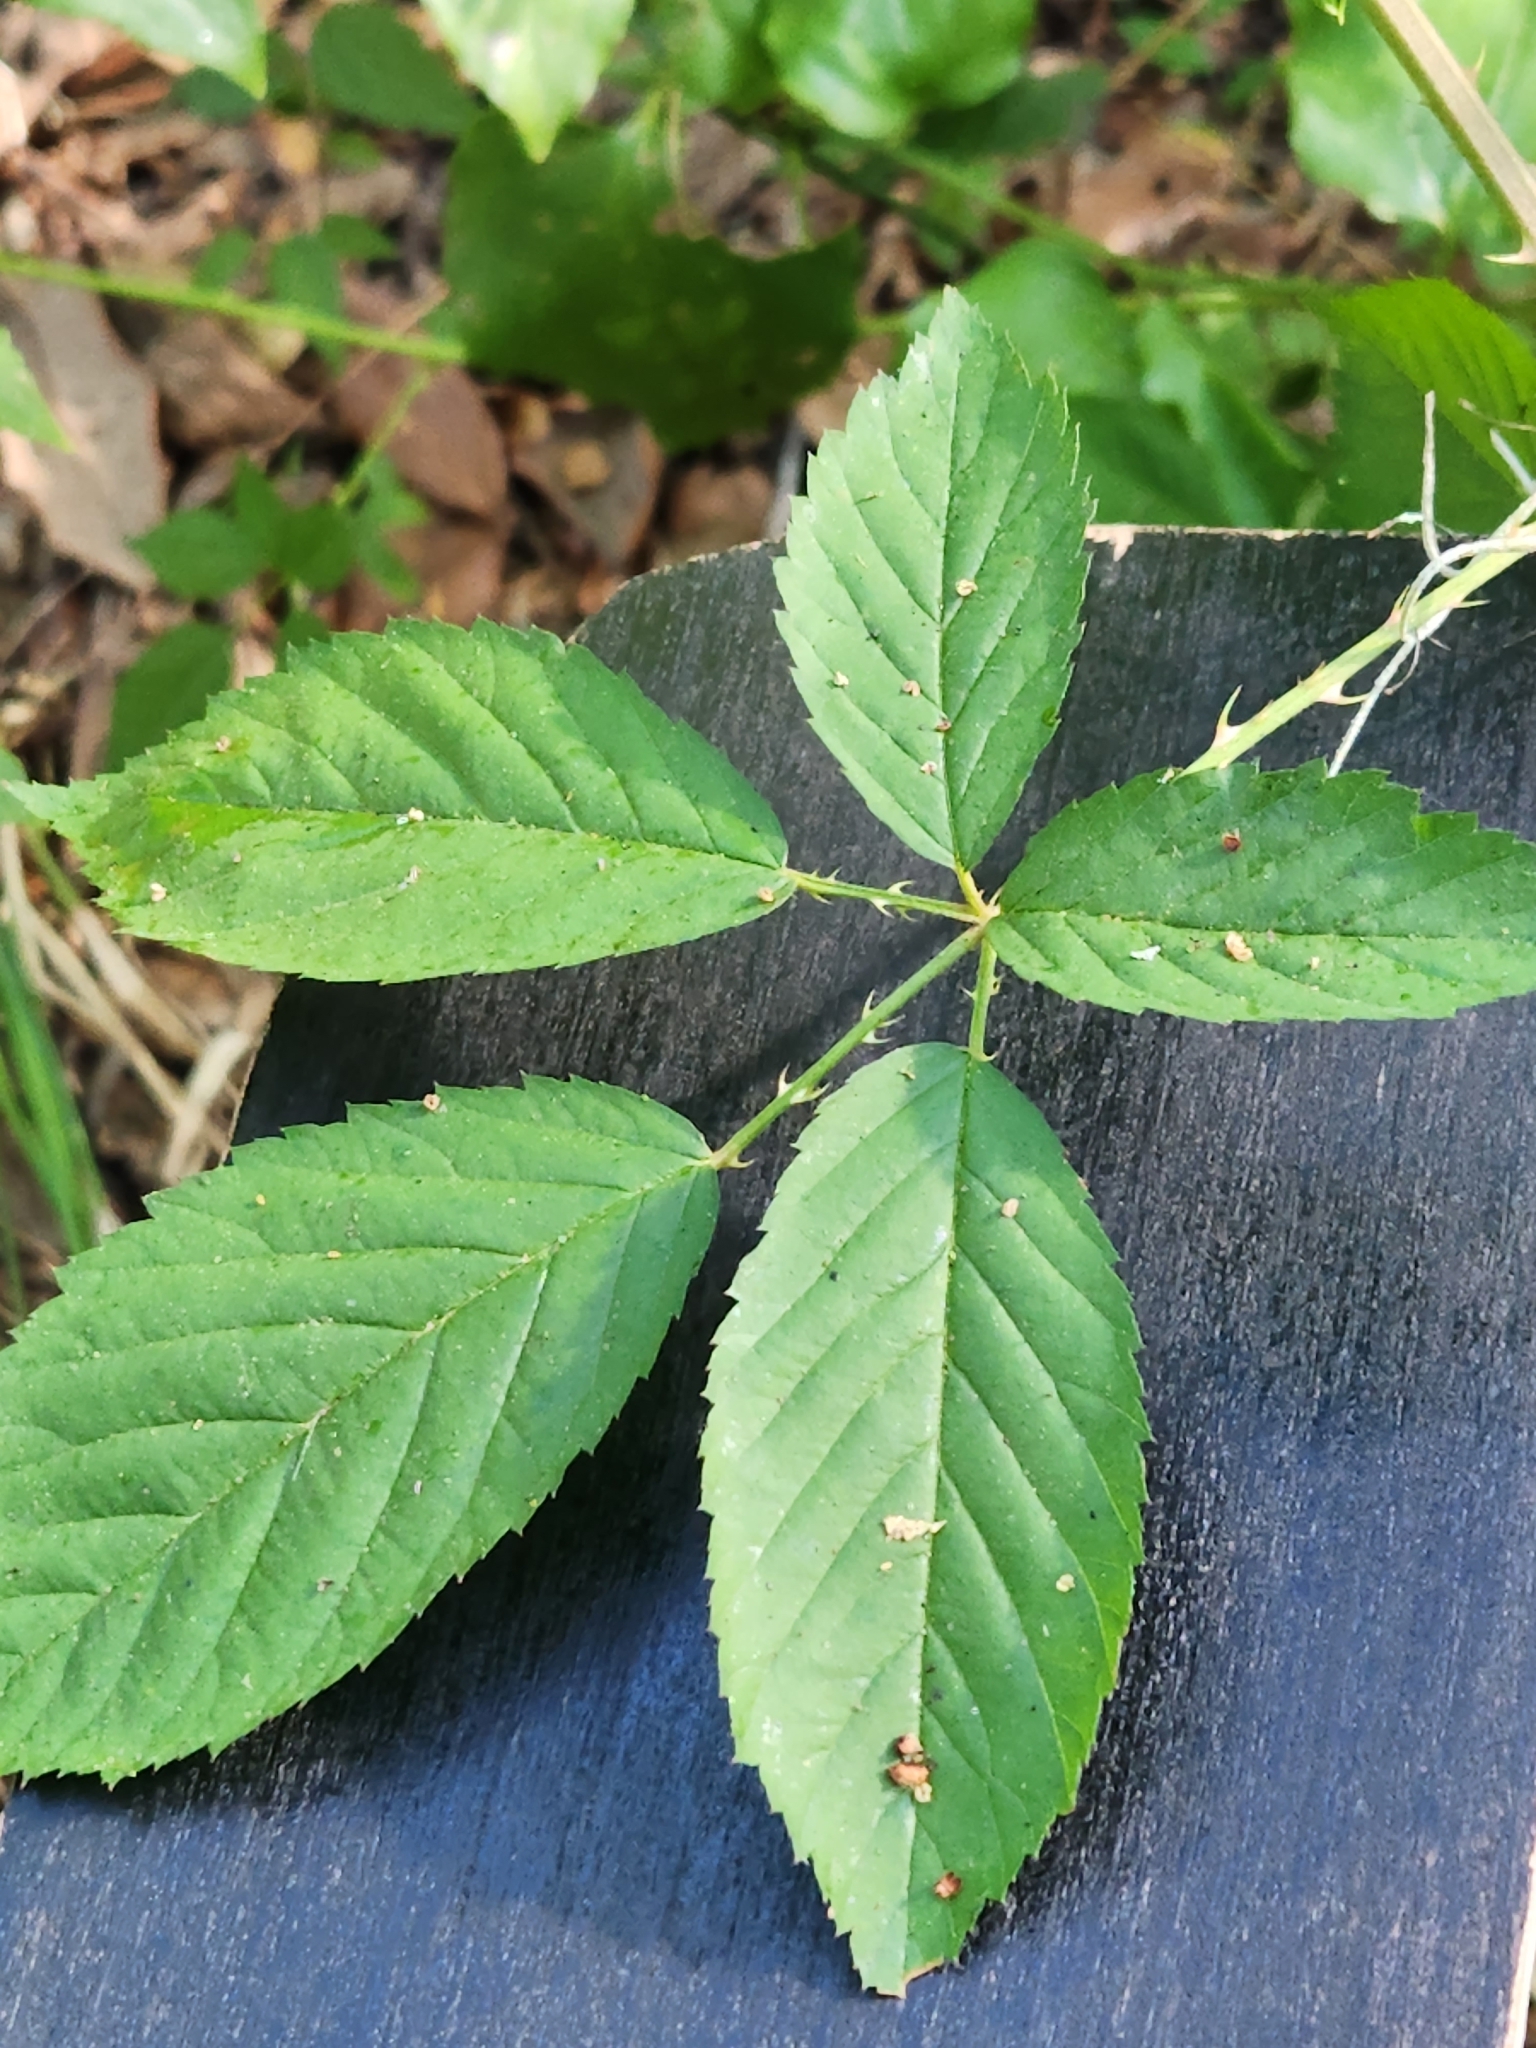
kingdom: Plantae
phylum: Tracheophyta
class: Magnoliopsida
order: Rosales
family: Rosaceae
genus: Rubus
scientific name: Rubus trivialis
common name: Southern dewberry
